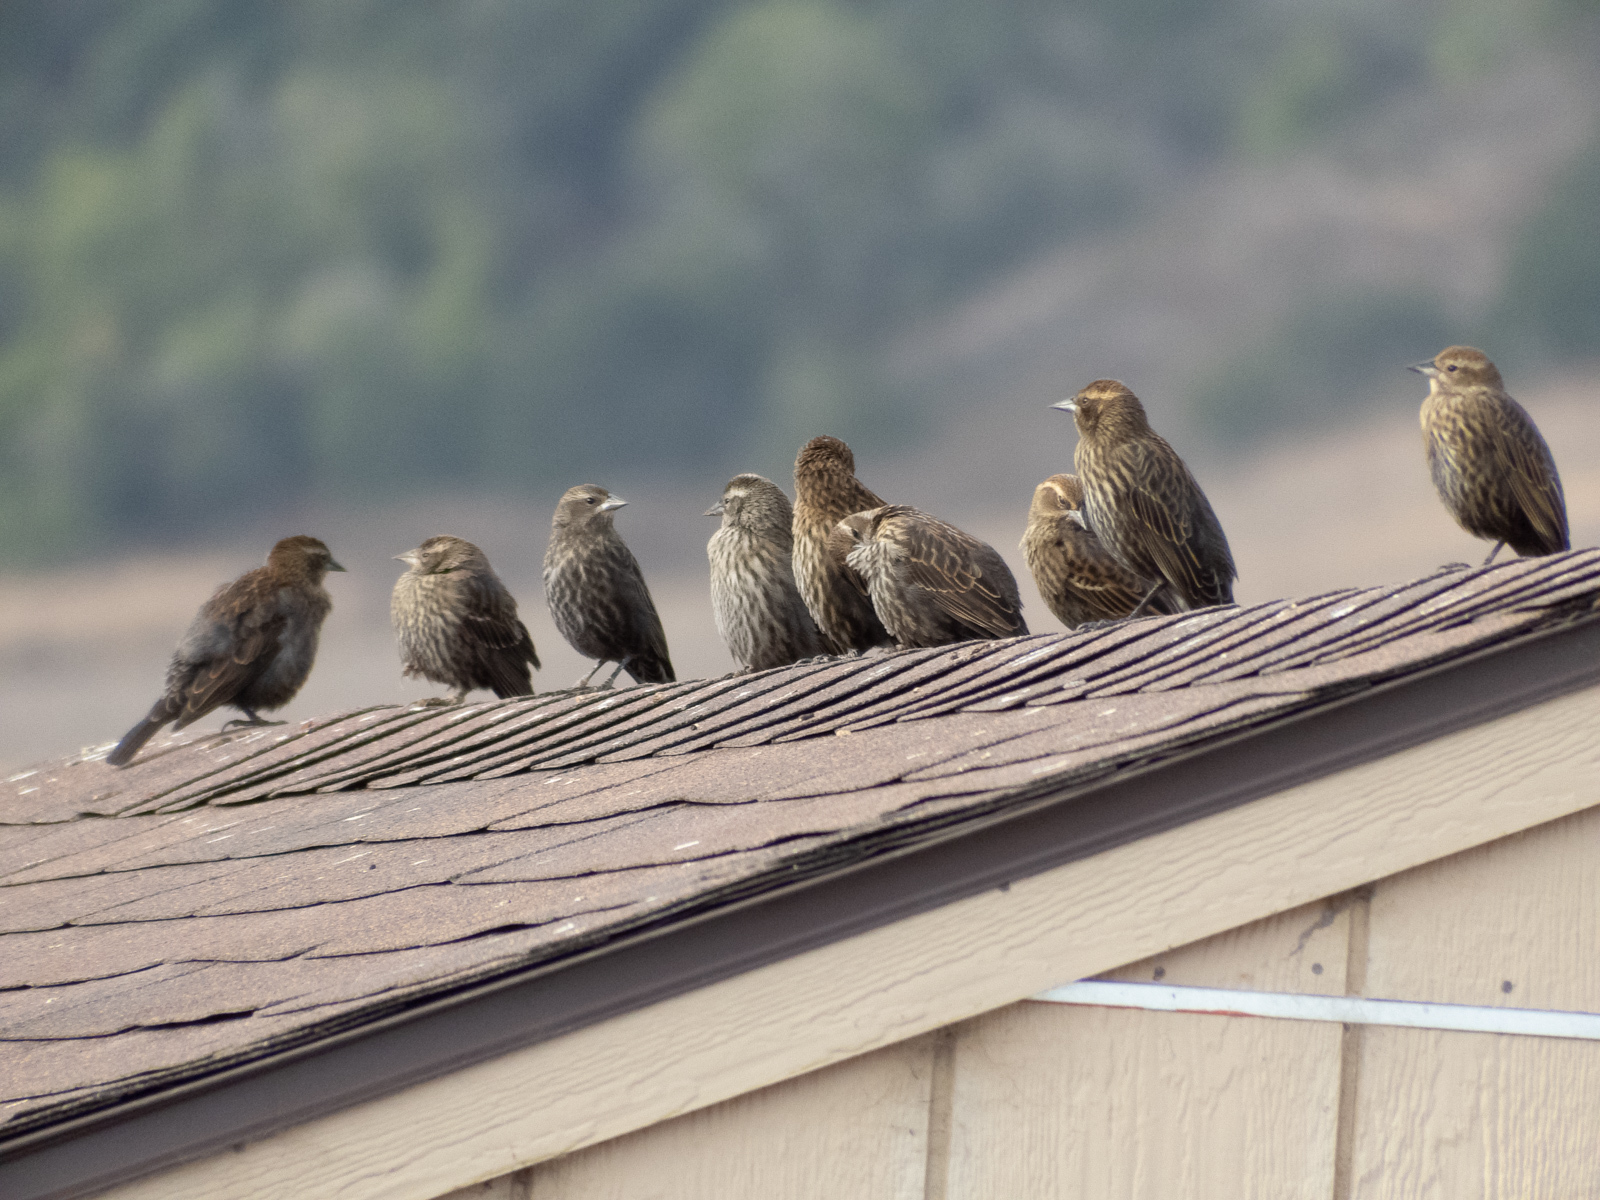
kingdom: Animalia
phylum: Chordata
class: Aves
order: Passeriformes
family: Icteridae
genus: Agelaius
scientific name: Agelaius phoeniceus
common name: Red-winged blackbird
